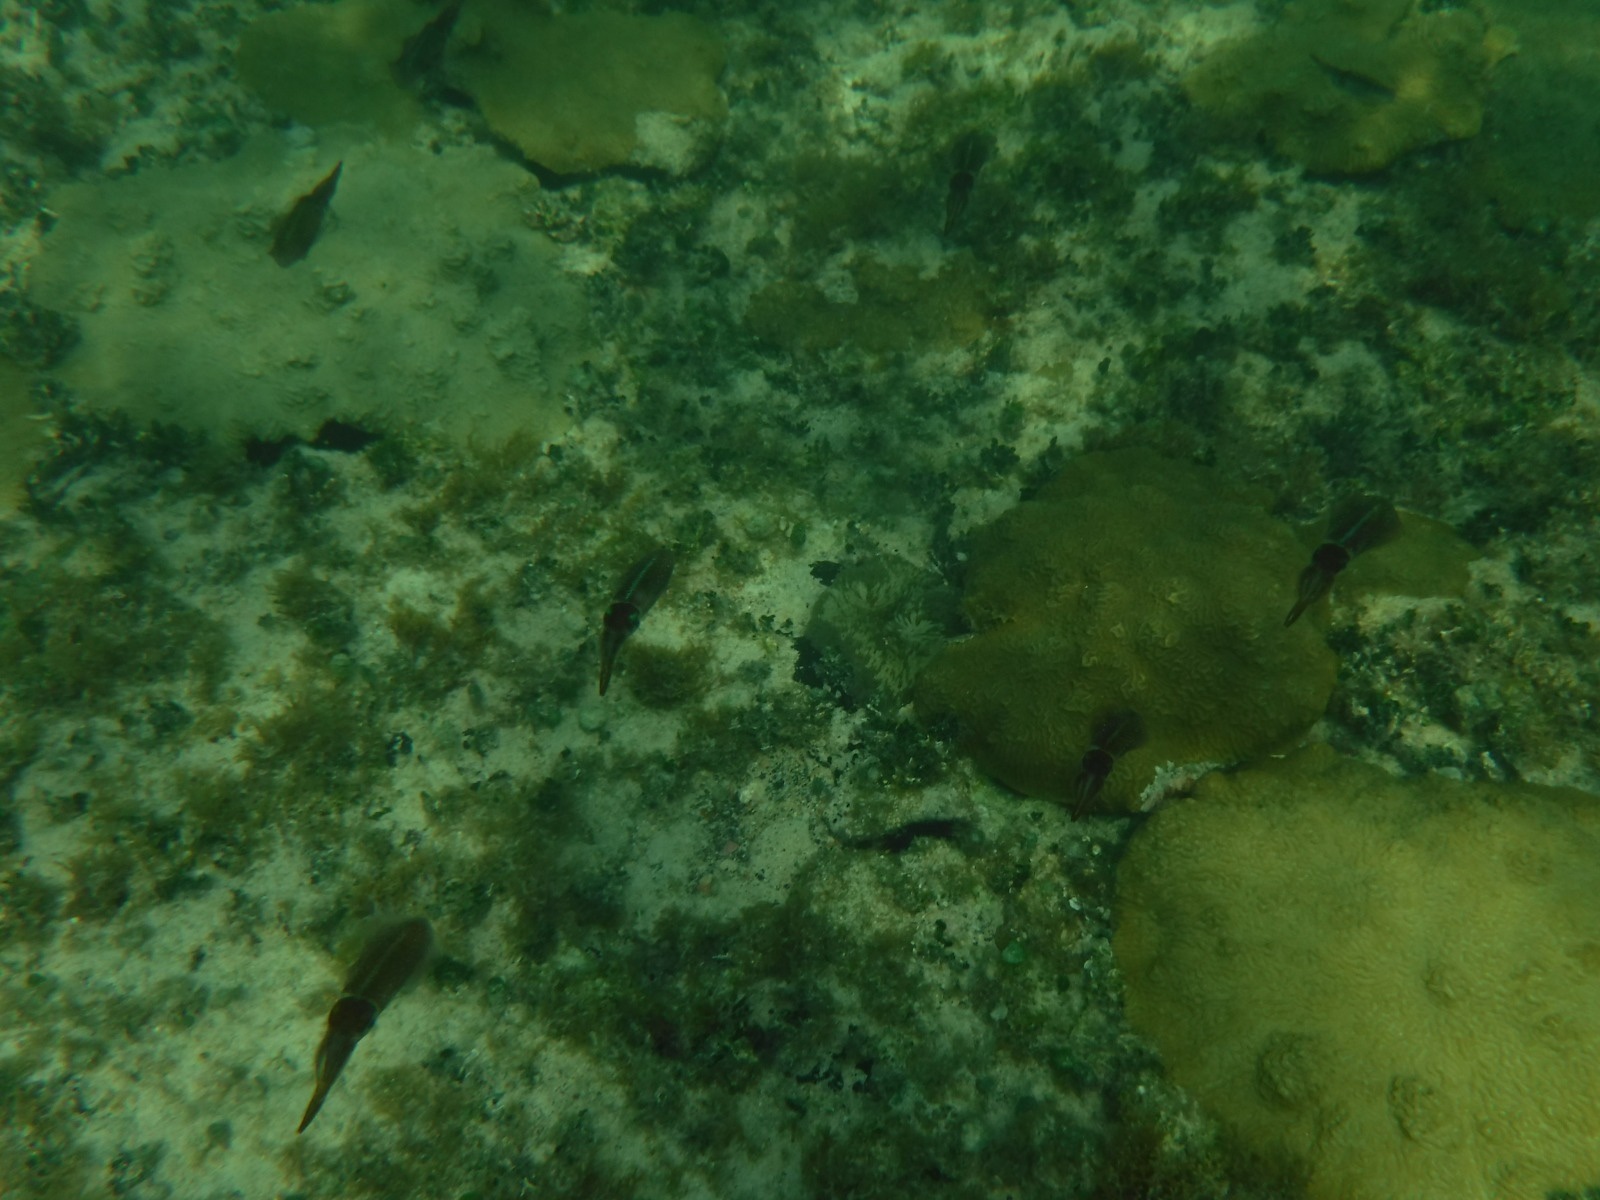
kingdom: Animalia
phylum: Mollusca
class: Cephalopoda
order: Myopsida
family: Loliginidae
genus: Sepioteuthis
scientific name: Sepioteuthis sepioidea
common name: Caribbean reef squid
